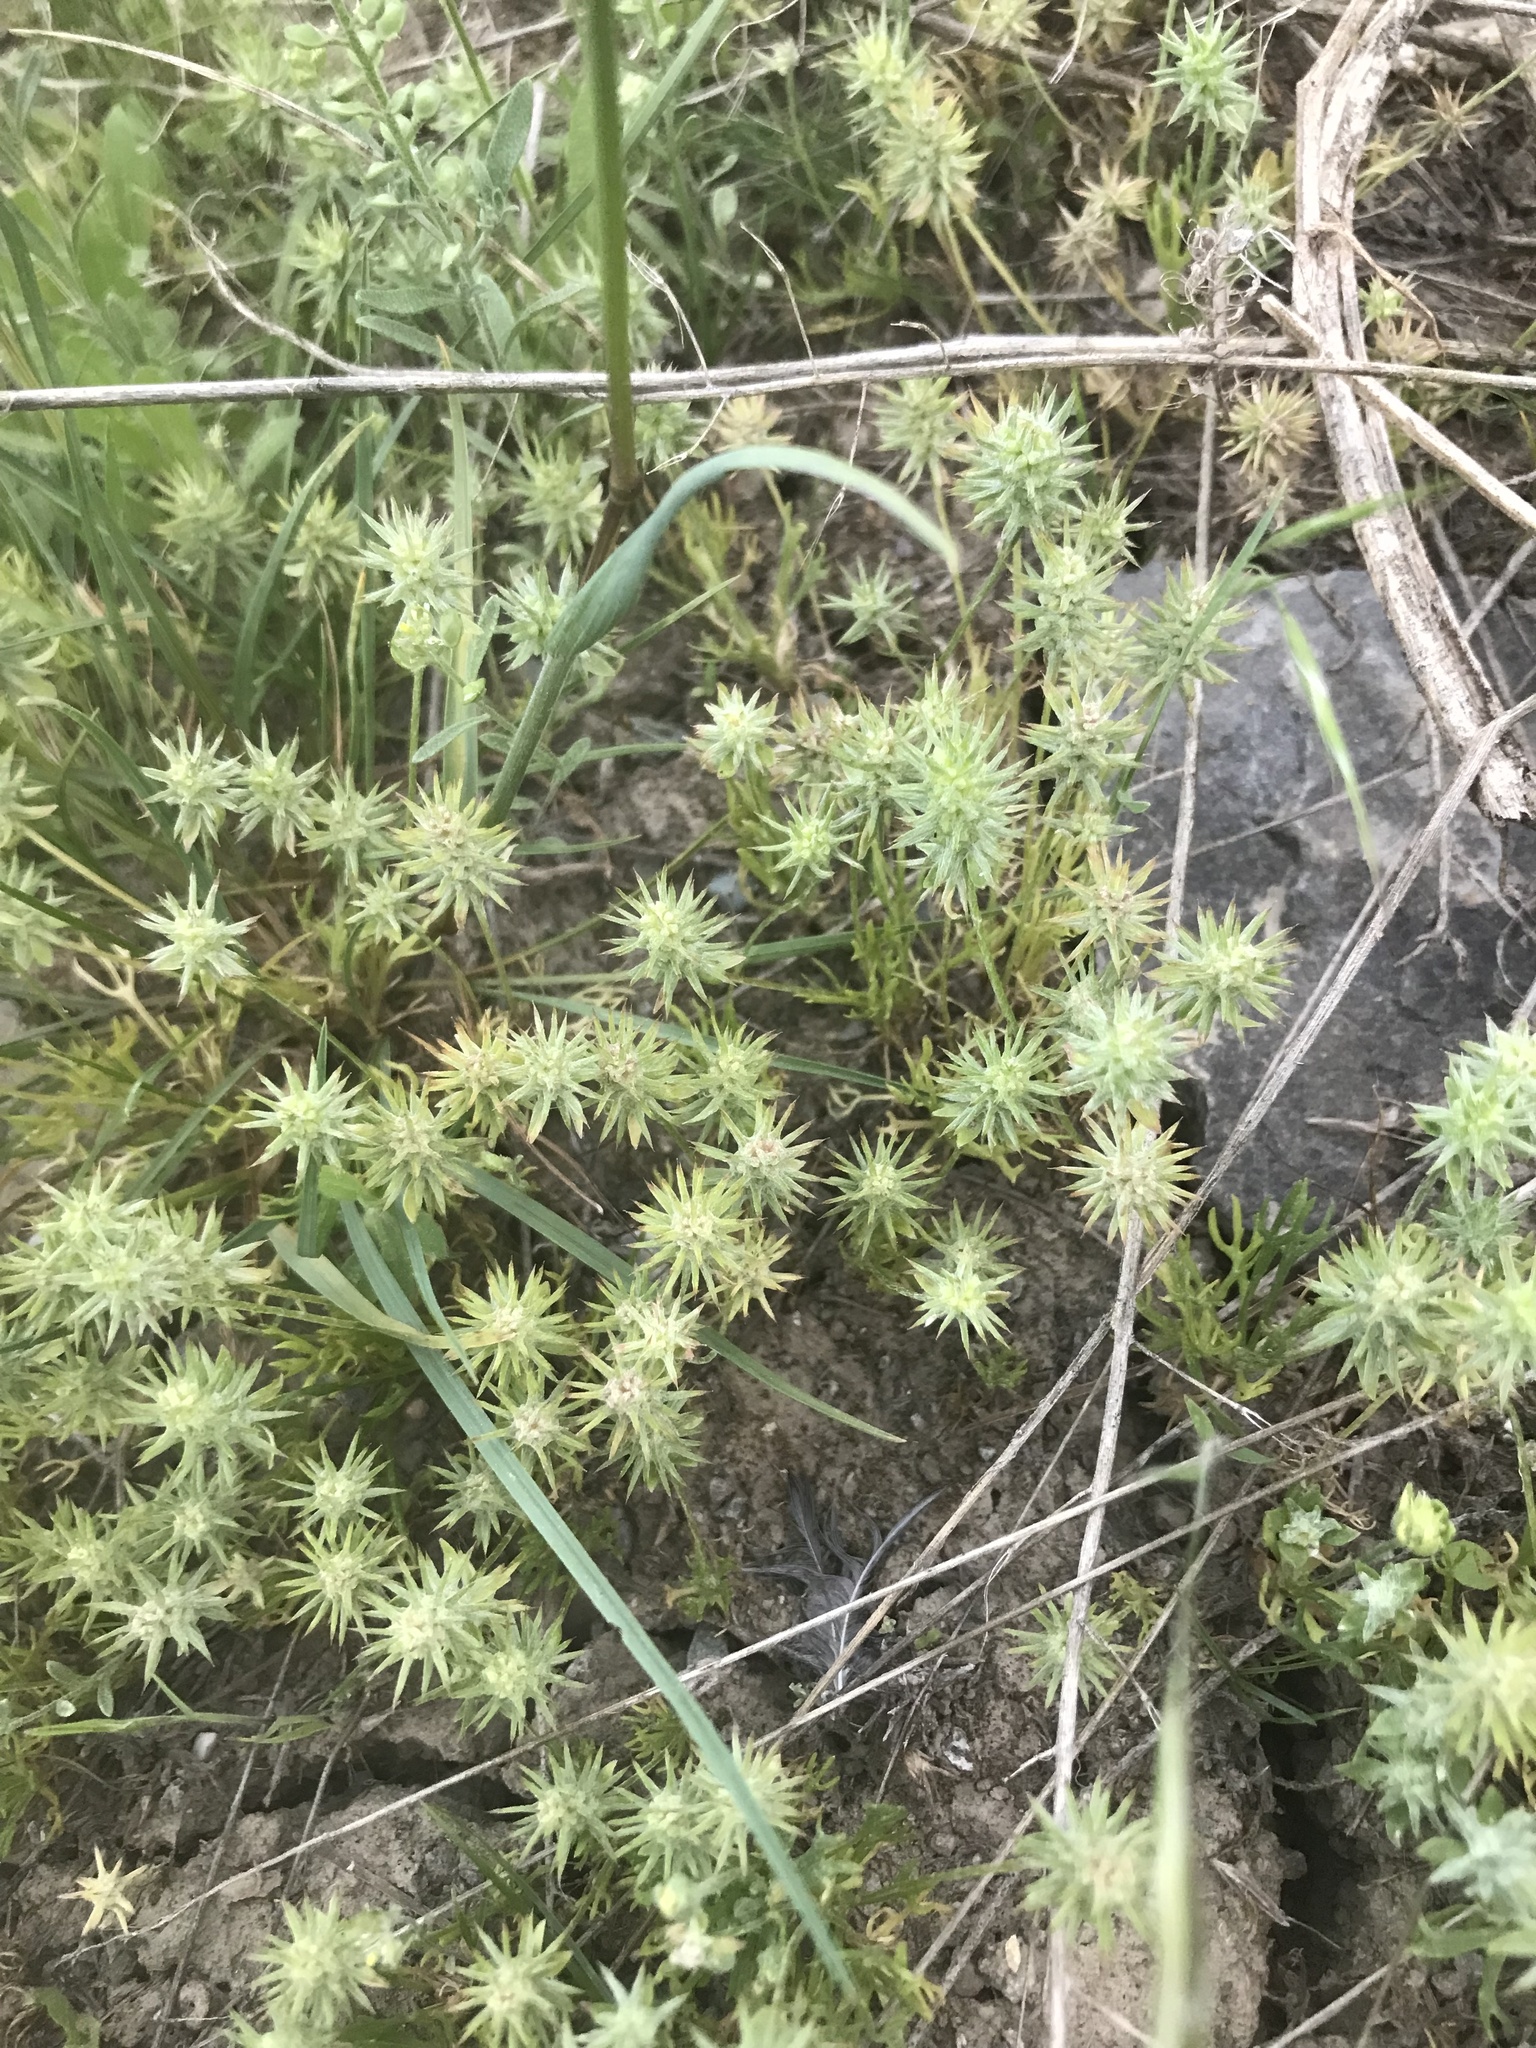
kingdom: Plantae
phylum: Tracheophyta
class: Magnoliopsida
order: Ranunculales
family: Ranunculaceae
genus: Ceratocephala
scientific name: Ceratocephala orthoceras
